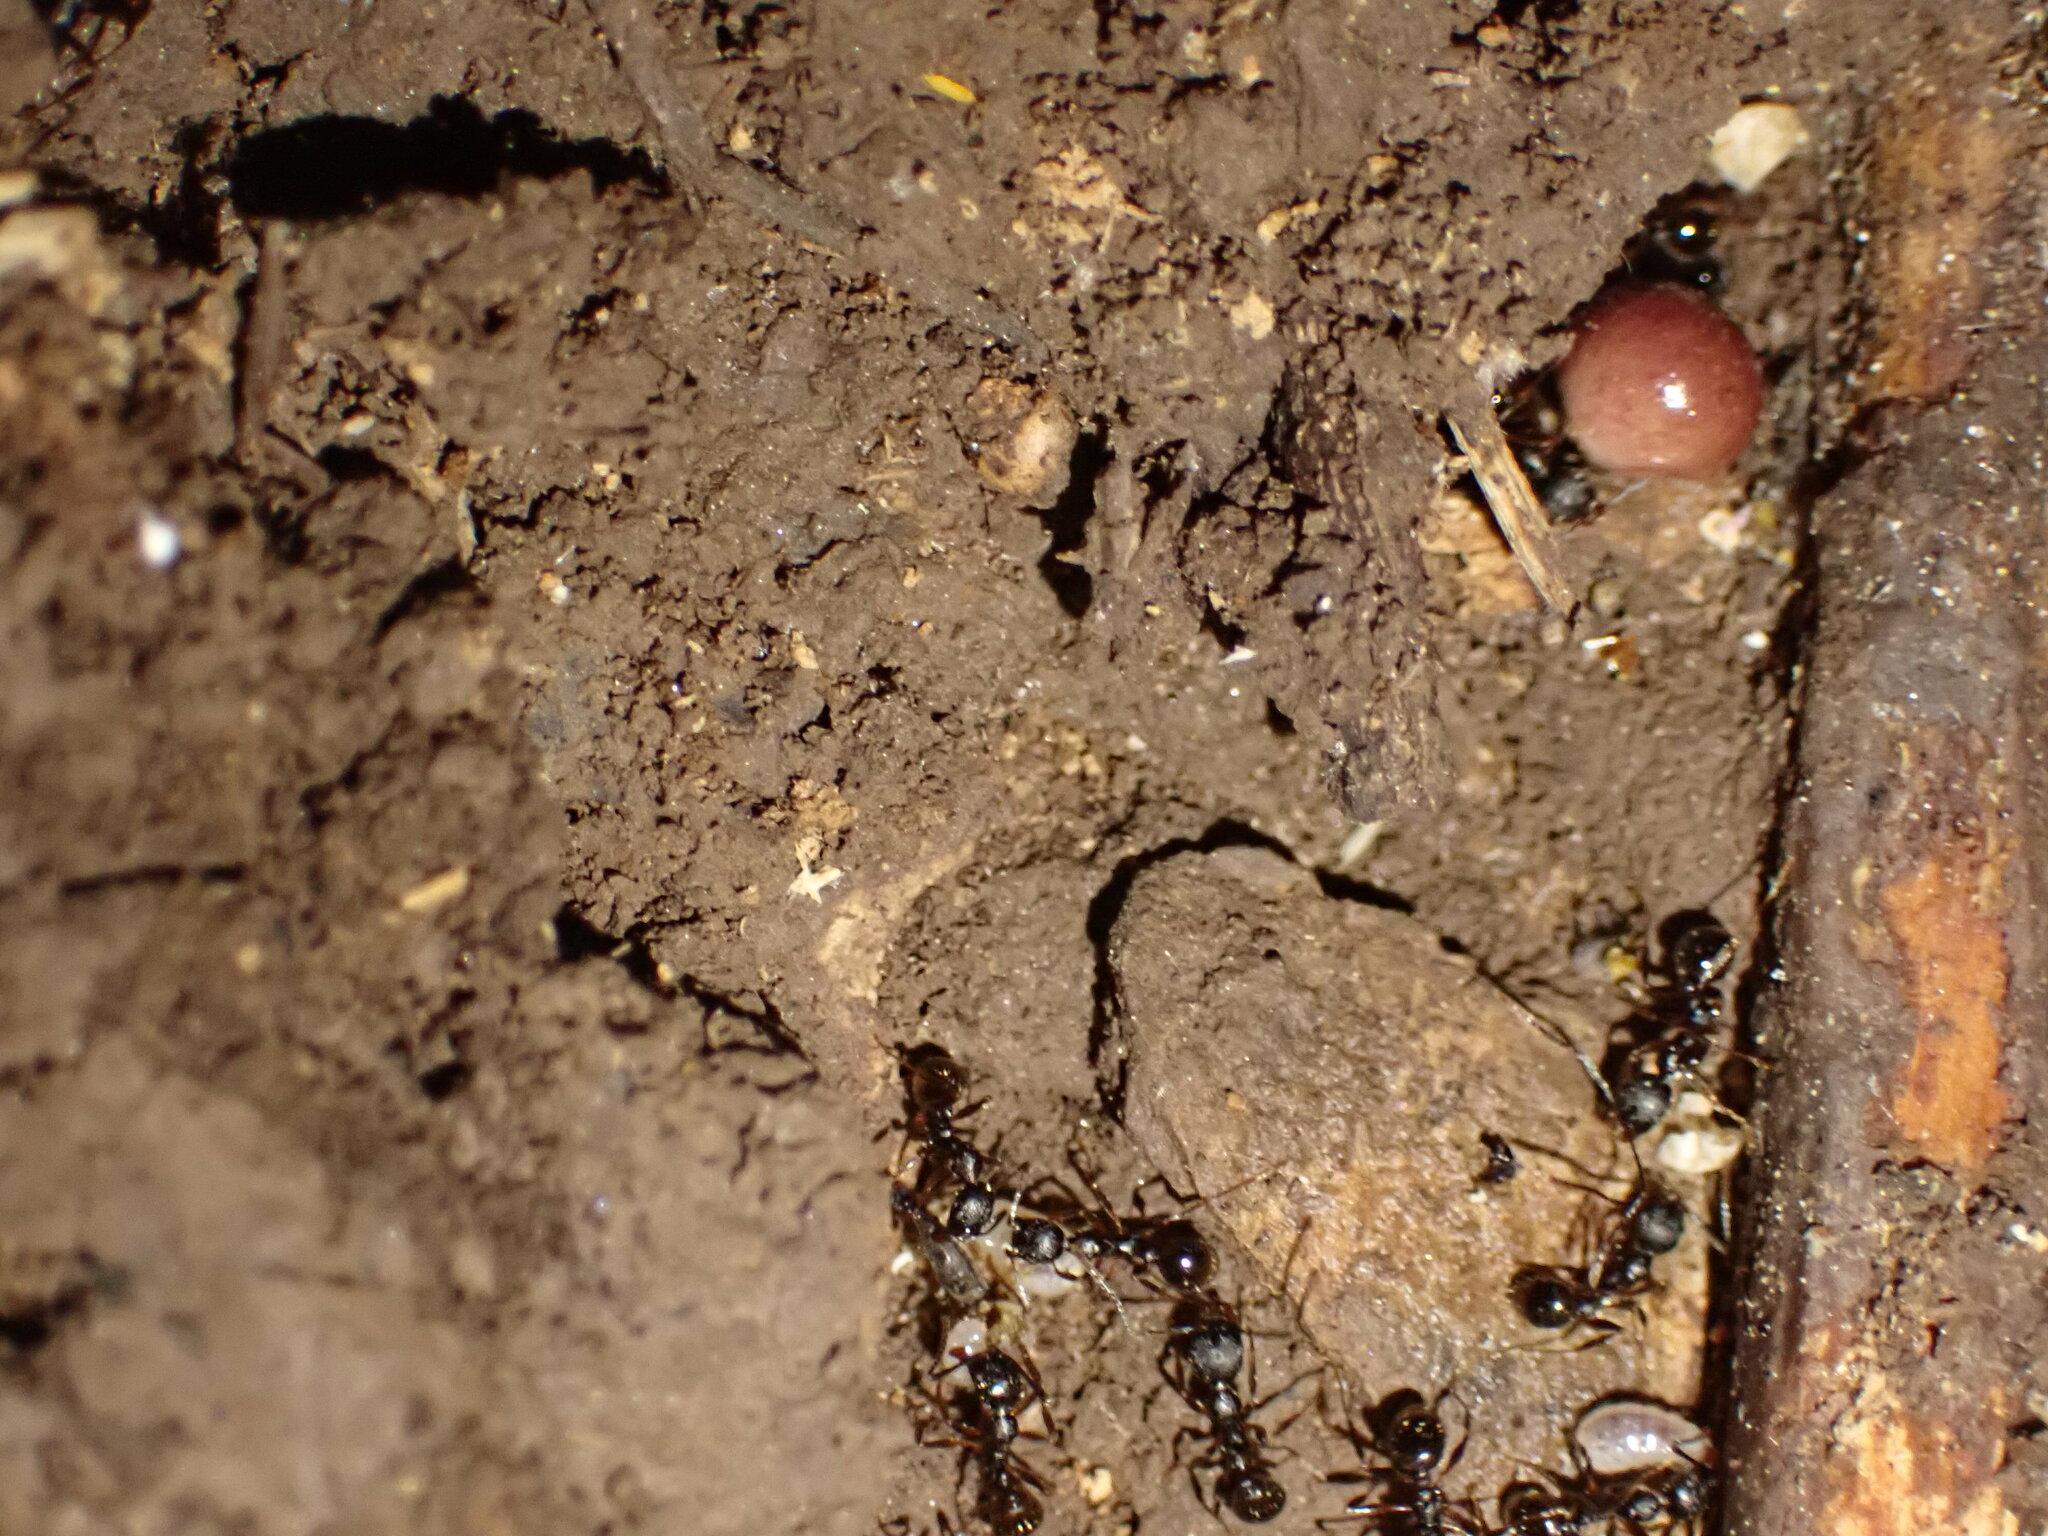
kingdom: Animalia
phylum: Arthropoda
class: Insecta
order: Hymenoptera
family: Formicidae
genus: Aphaenogaster
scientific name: Aphaenogaster picea
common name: Pitch-black collared ant
